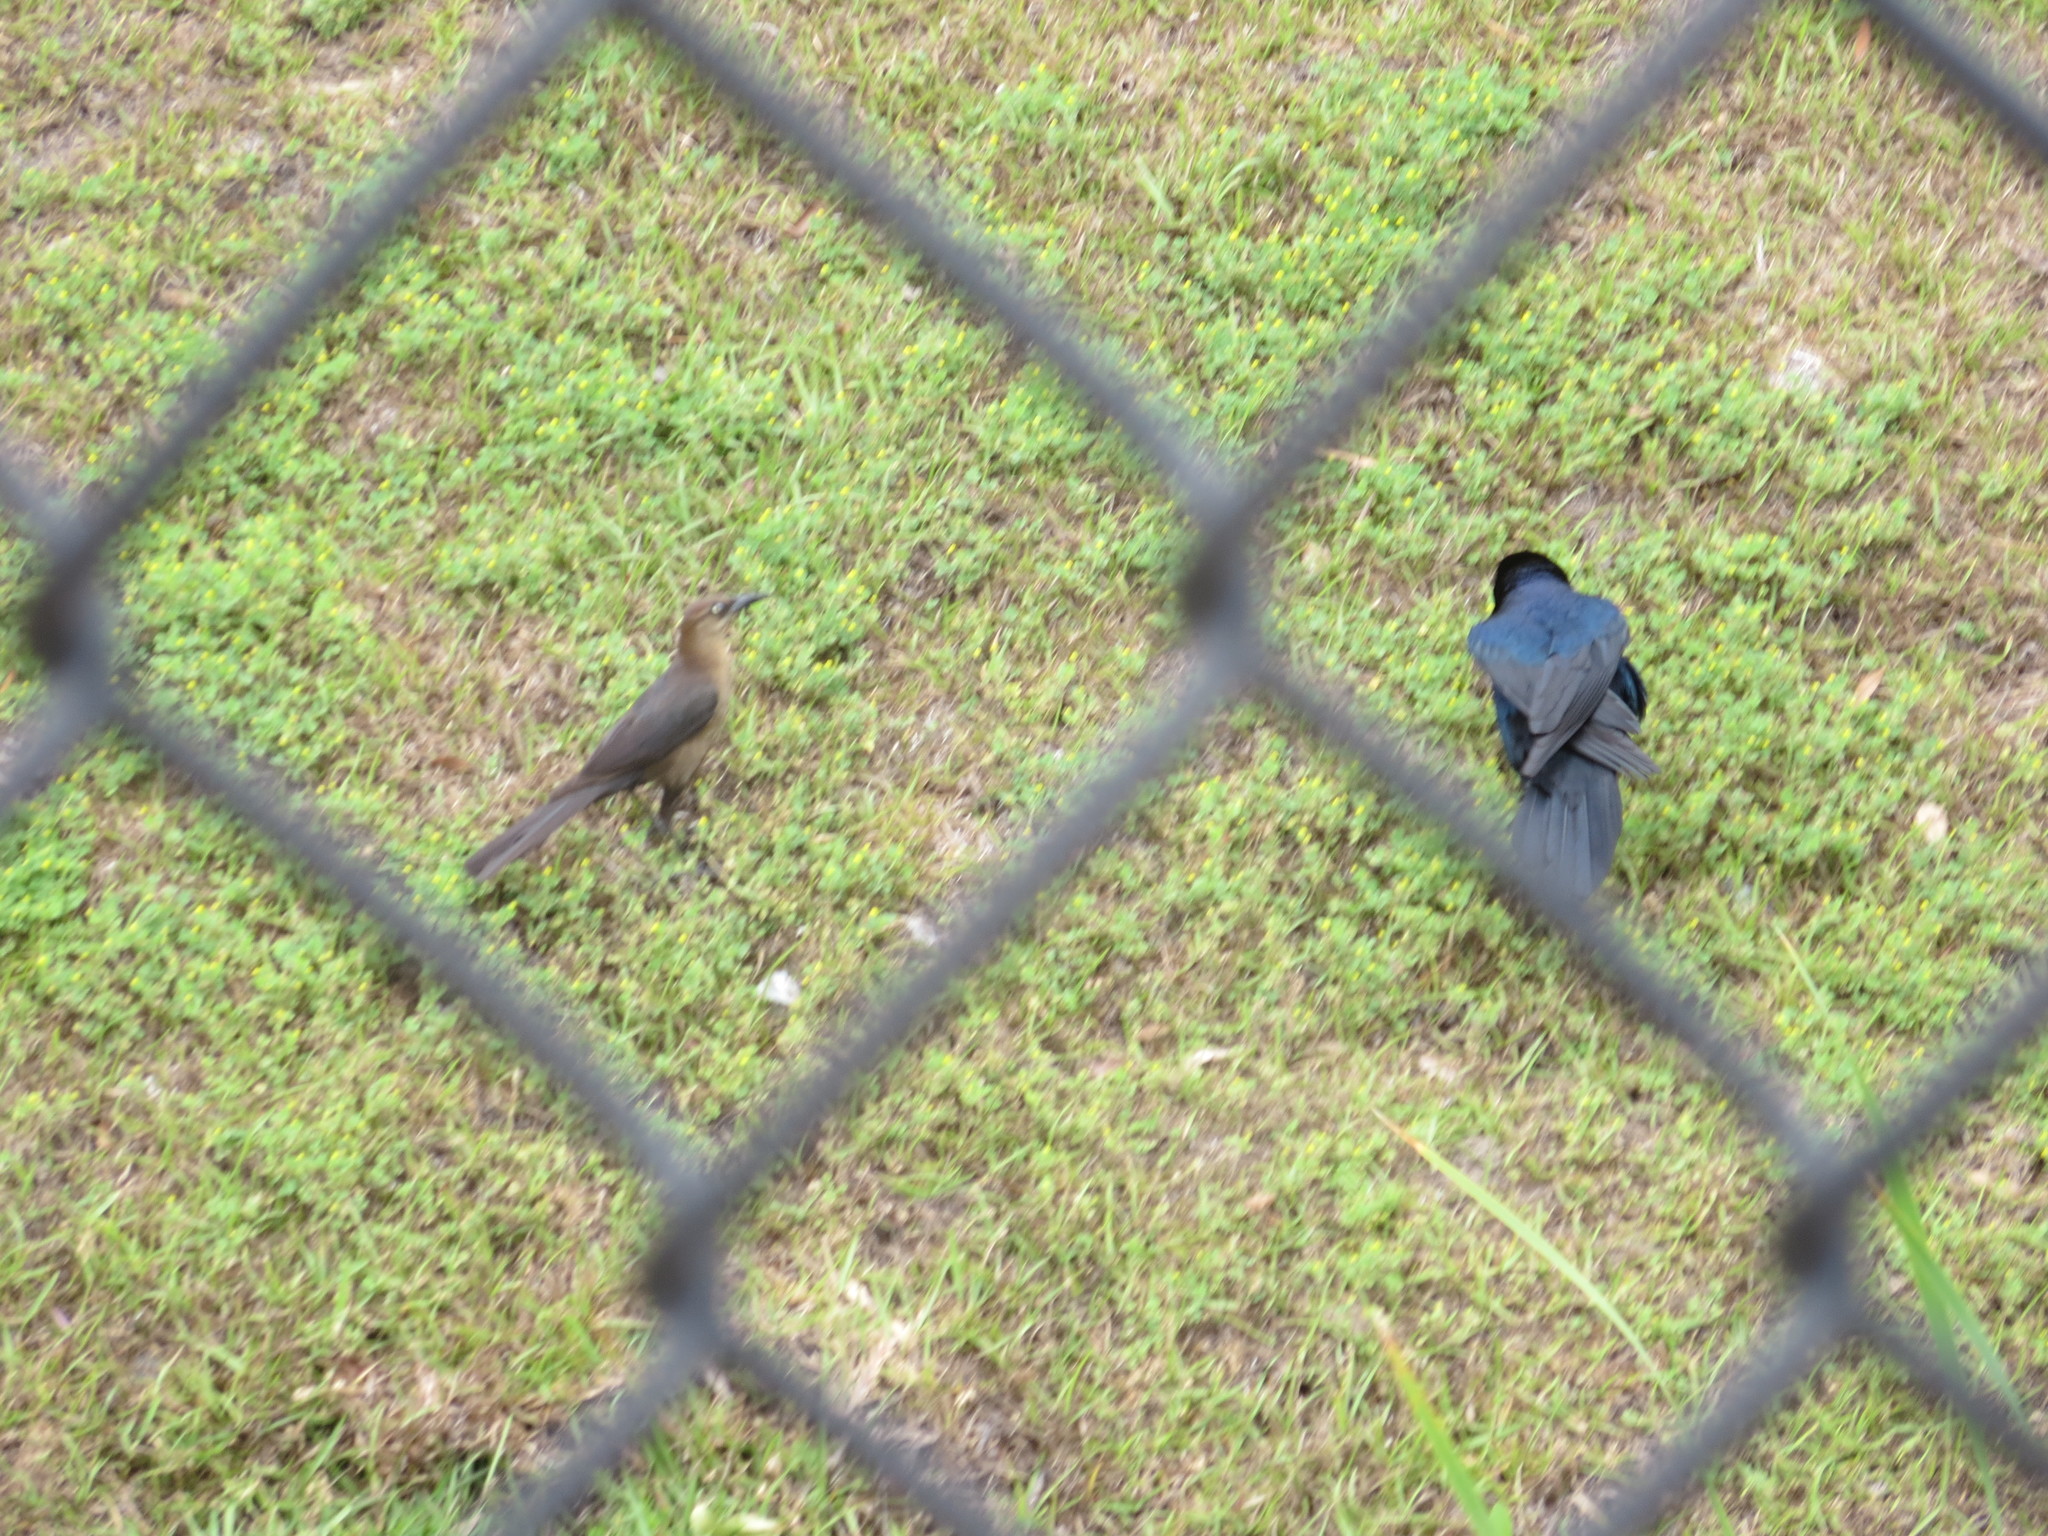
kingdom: Animalia
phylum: Chordata
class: Aves
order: Passeriformes
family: Icteridae
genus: Quiscalus
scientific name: Quiscalus major
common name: Boat-tailed grackle
